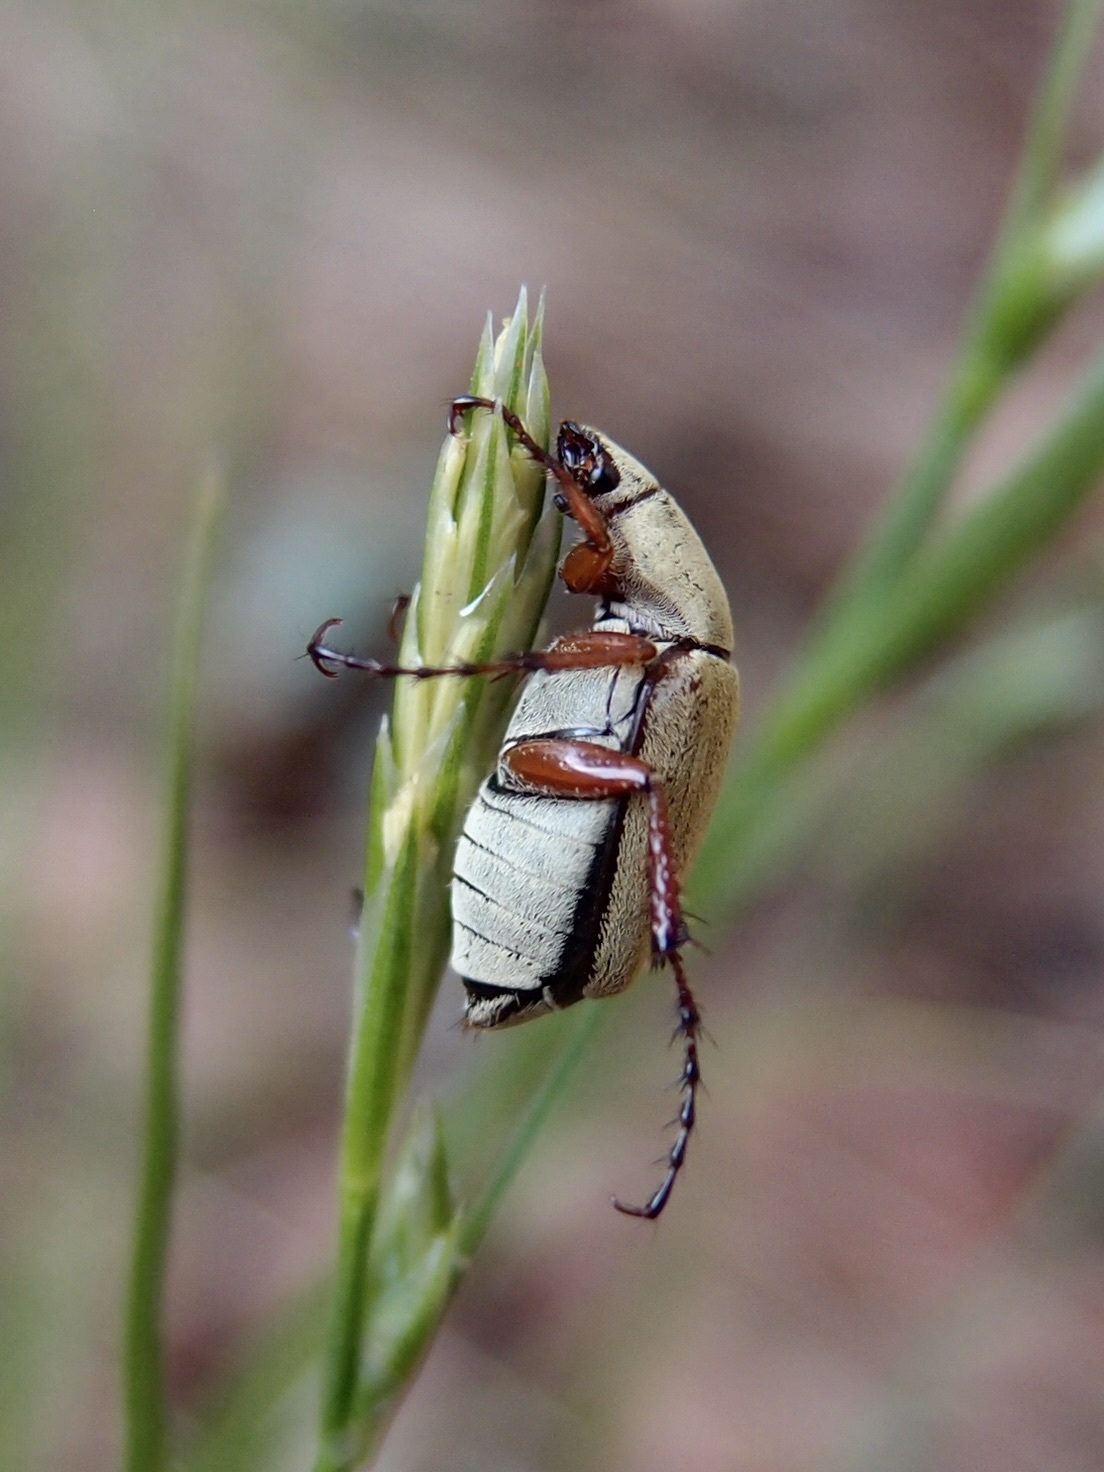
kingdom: Animalia
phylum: Arthropoda
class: Insecta
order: Coleoptera
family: Scarabaeidae
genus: Macrodactylus
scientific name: Macrodactylus uniformis
